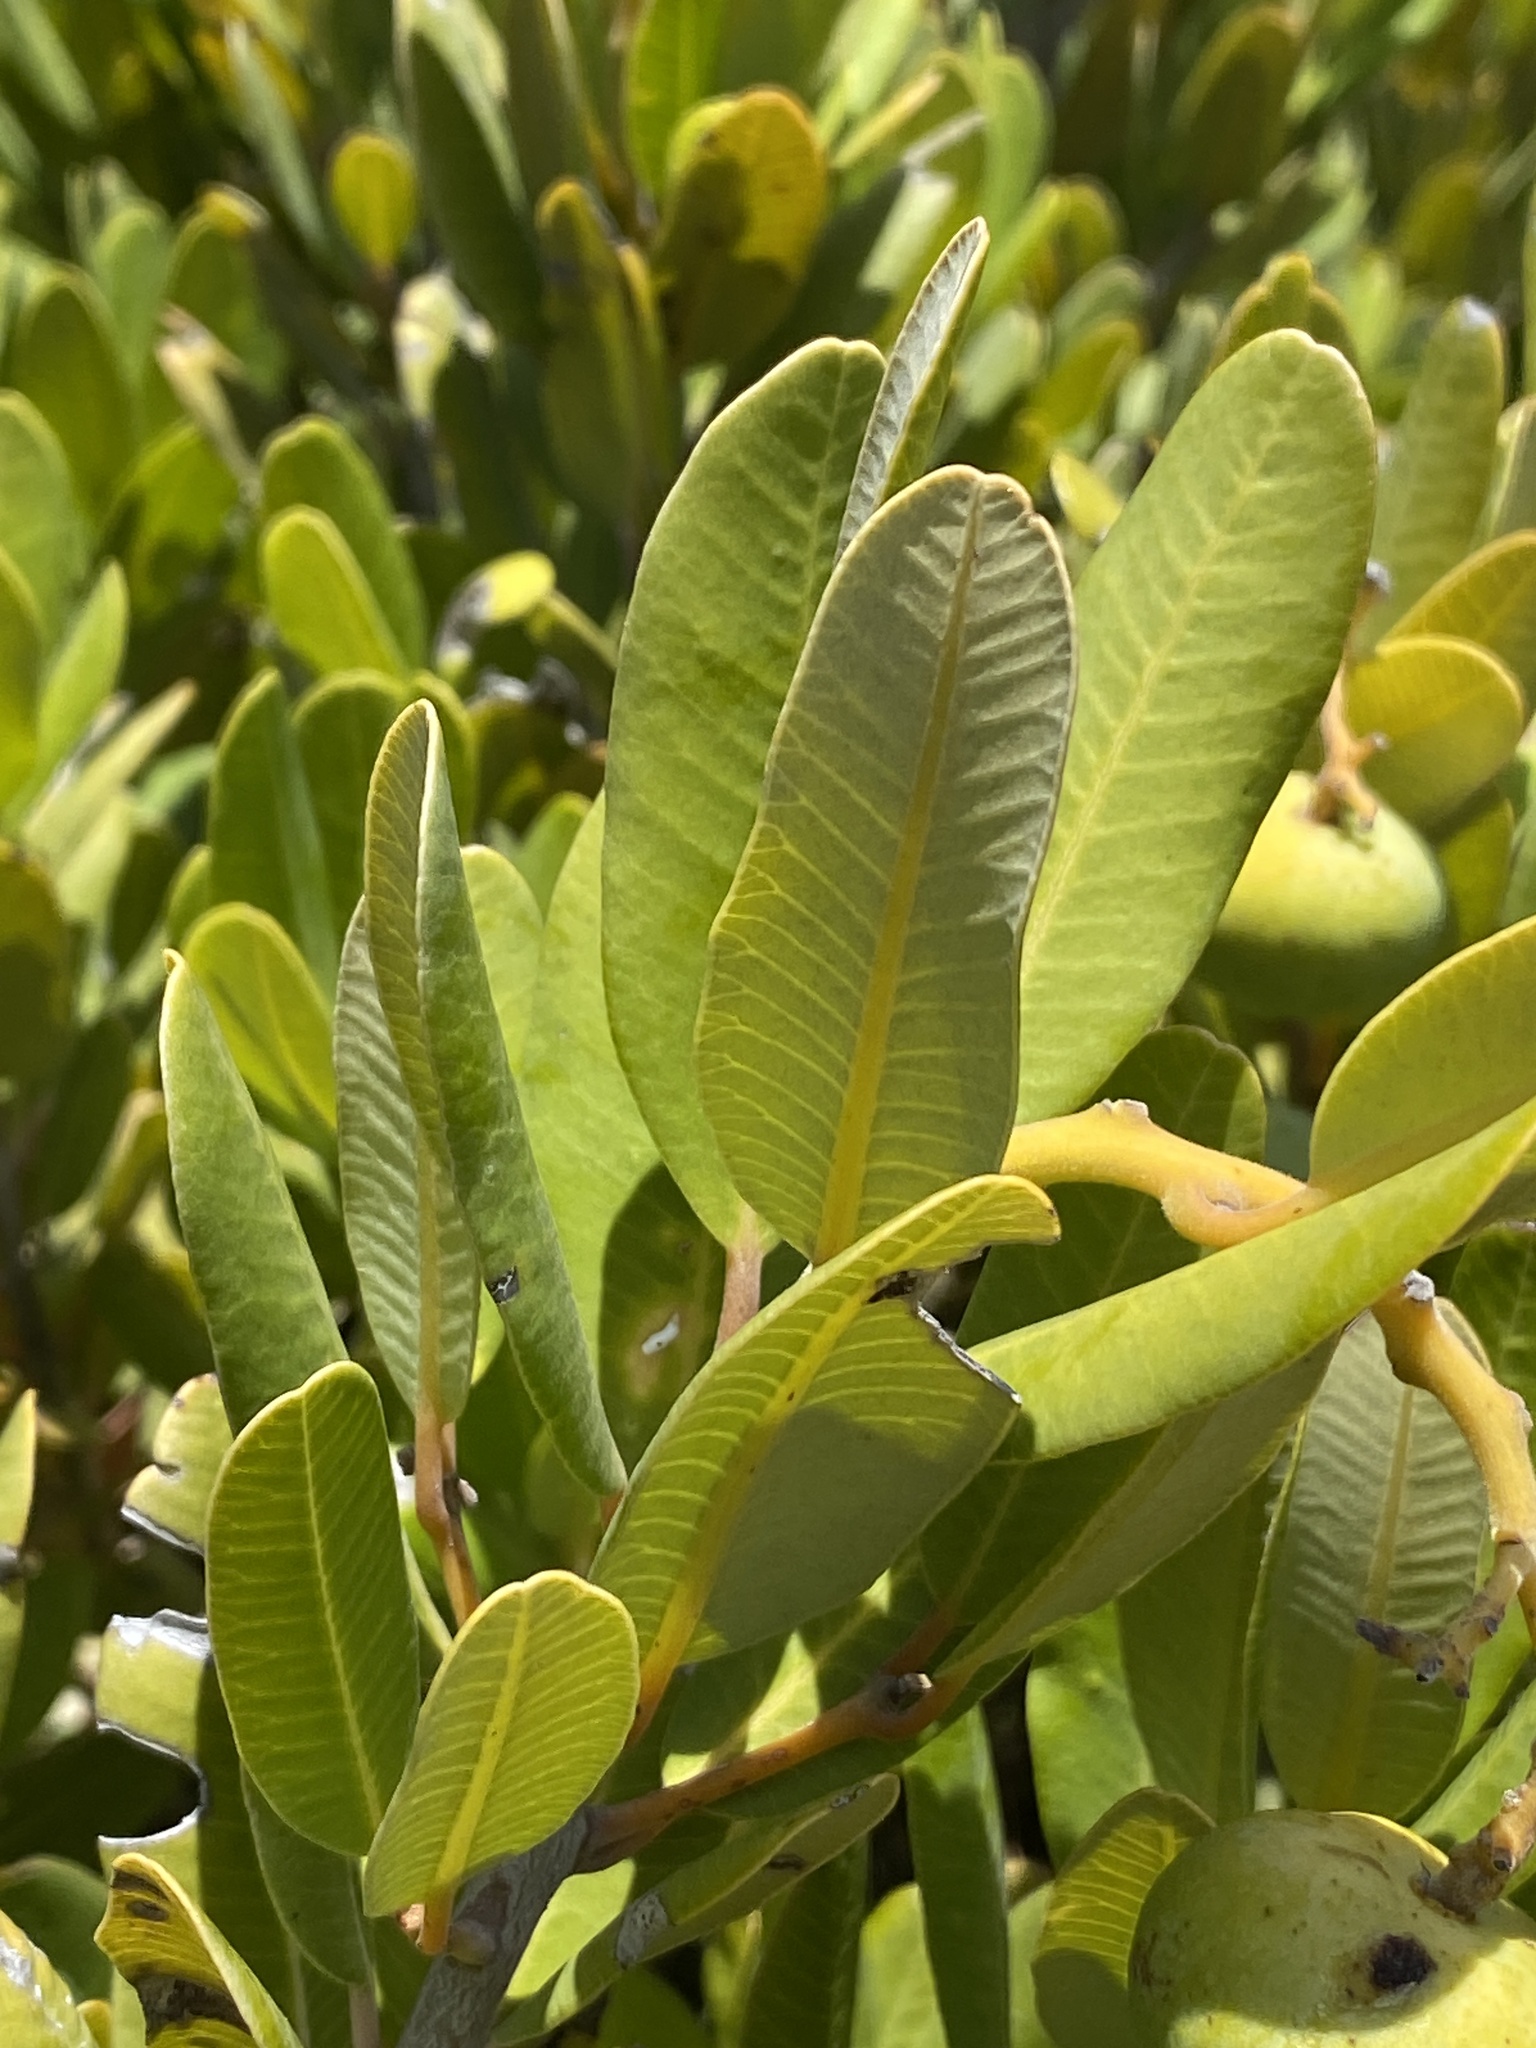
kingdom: Plantae
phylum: Tracheophyta
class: Magnoliopsida
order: Sapindales
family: Anacardiaceae
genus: Heeria
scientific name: Heeria argentea
